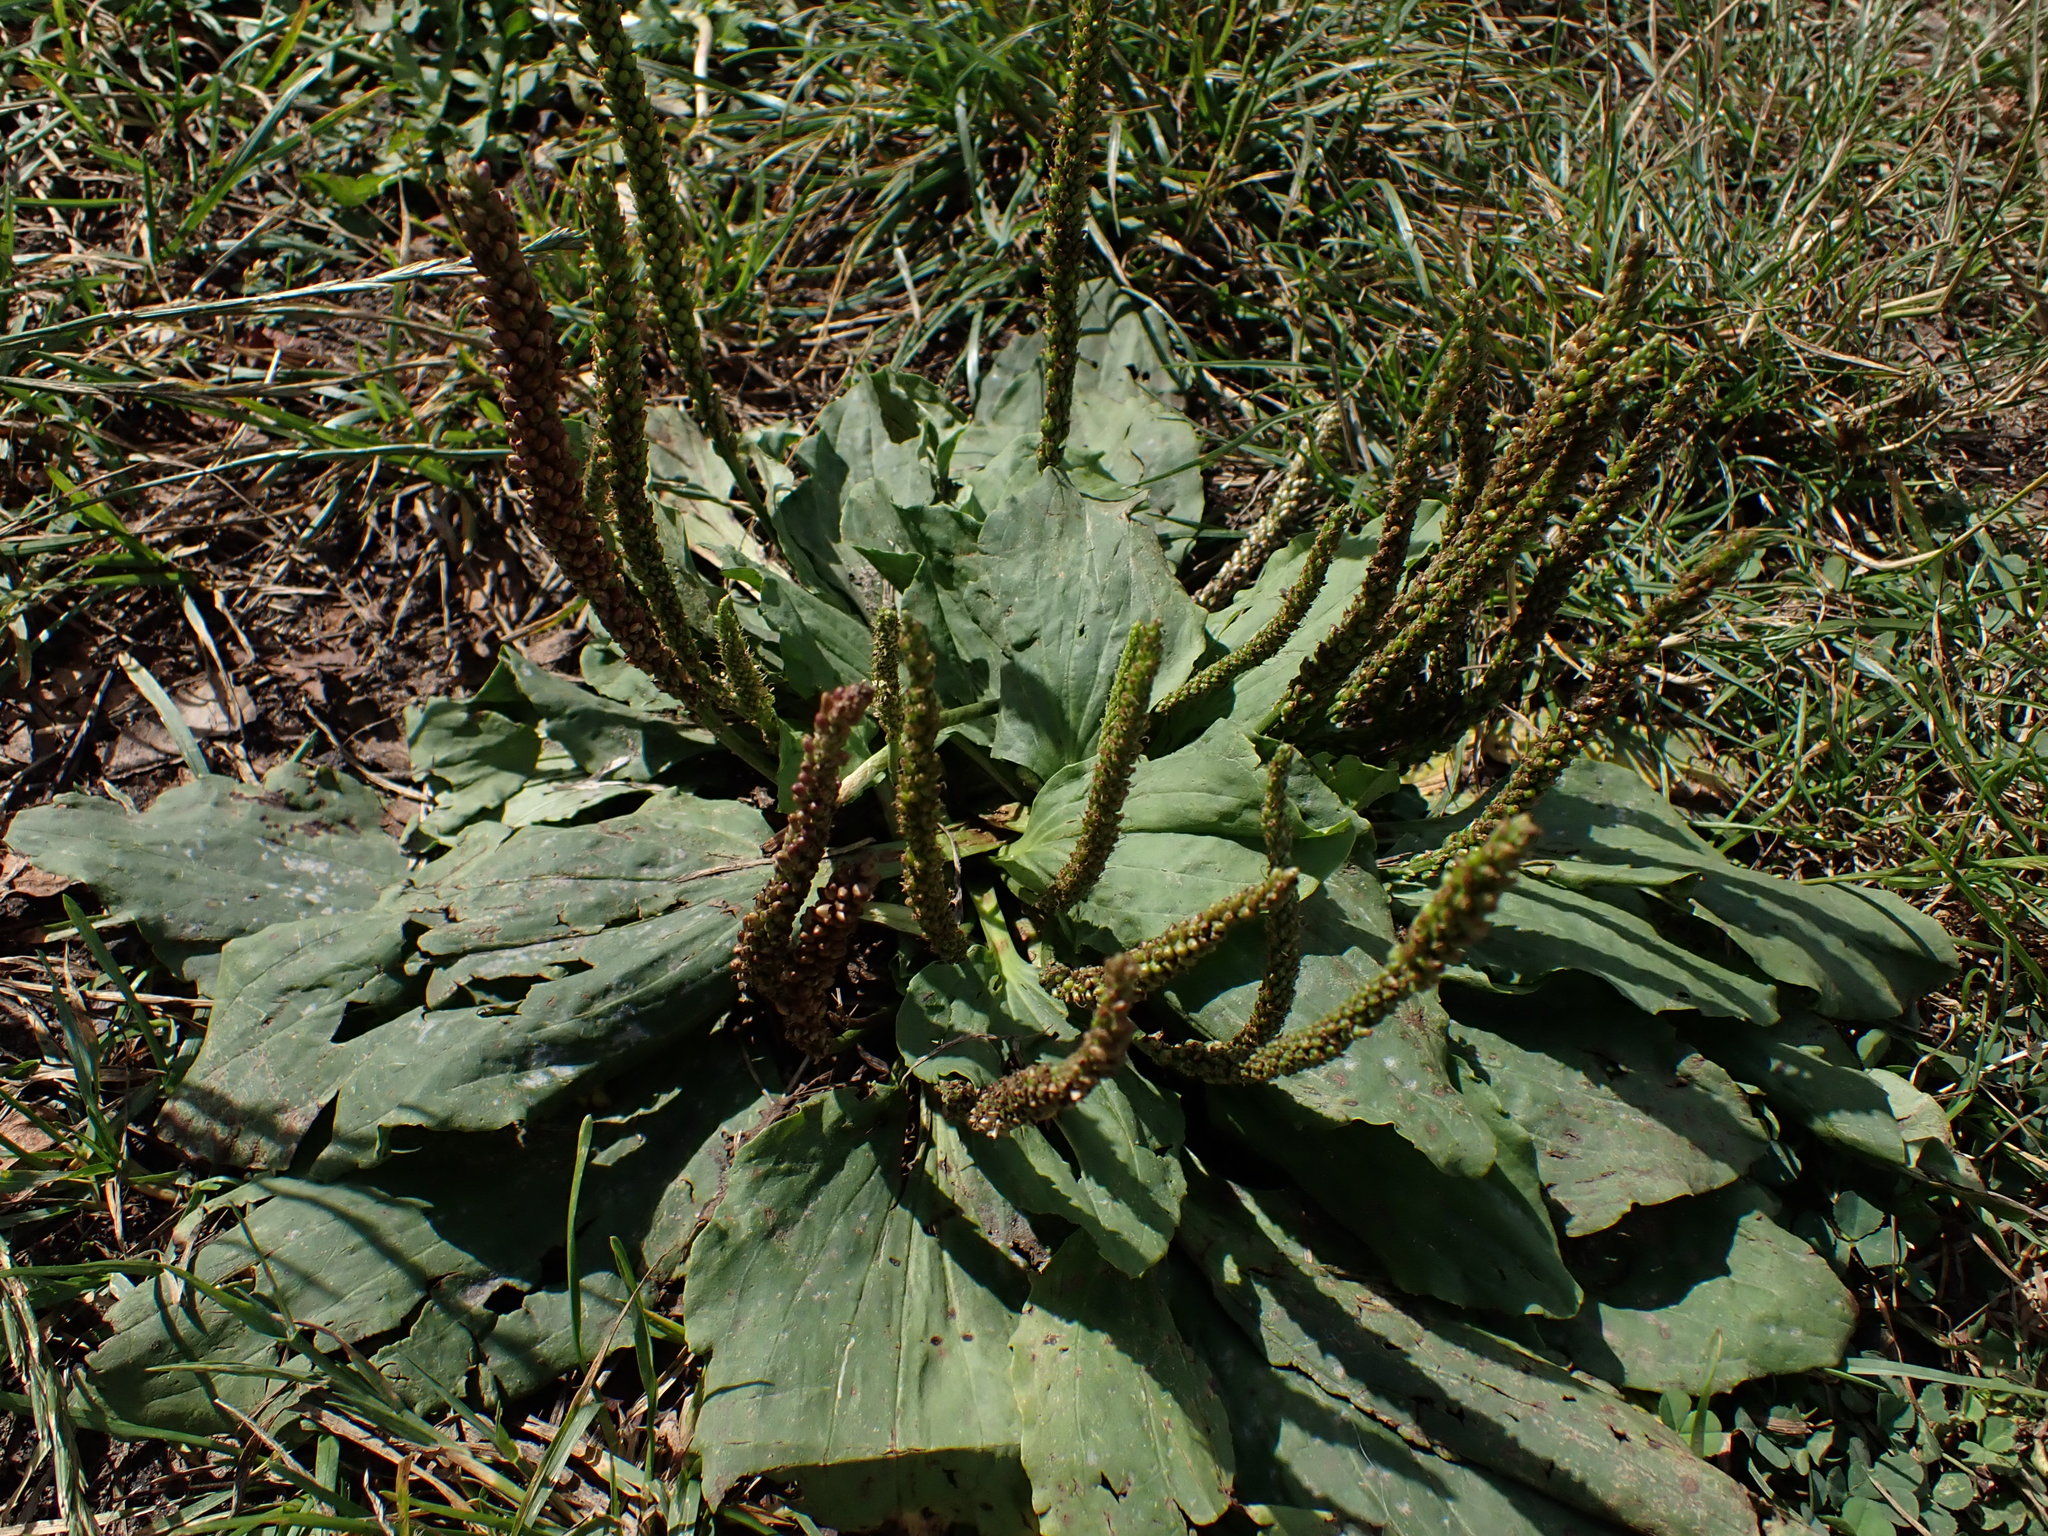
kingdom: Plantae
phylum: Tracheophyta
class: Magnoliopsida
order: Lamiales
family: Plantaginaceae
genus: Plantago
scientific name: Plantago major
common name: Common plantain
